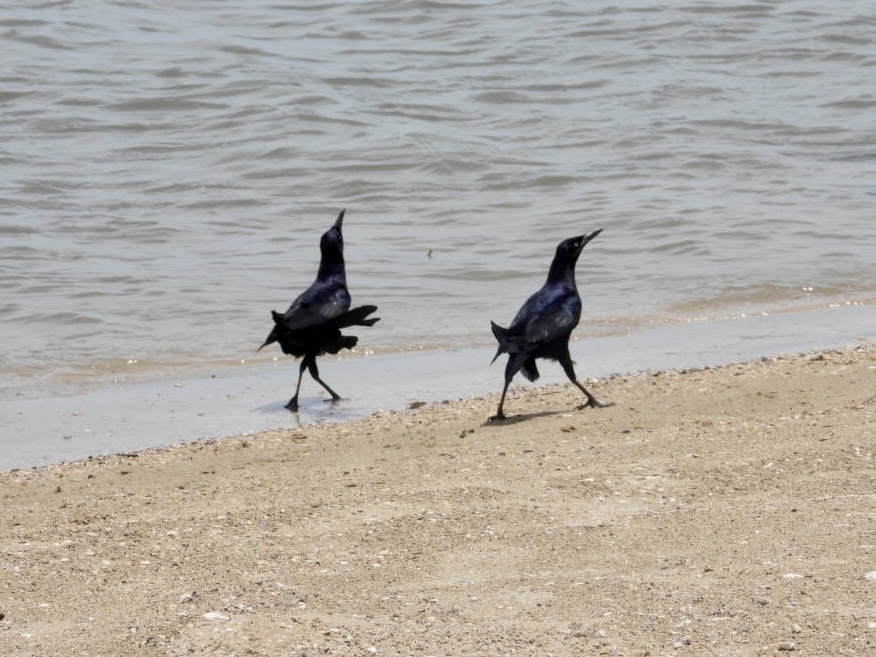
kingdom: Animalia
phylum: Chordata
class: Aves
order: Passeriformes
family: Icteridae
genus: Quiscalus
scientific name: Quiscalus mexicanus
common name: Great-tailed grackle
